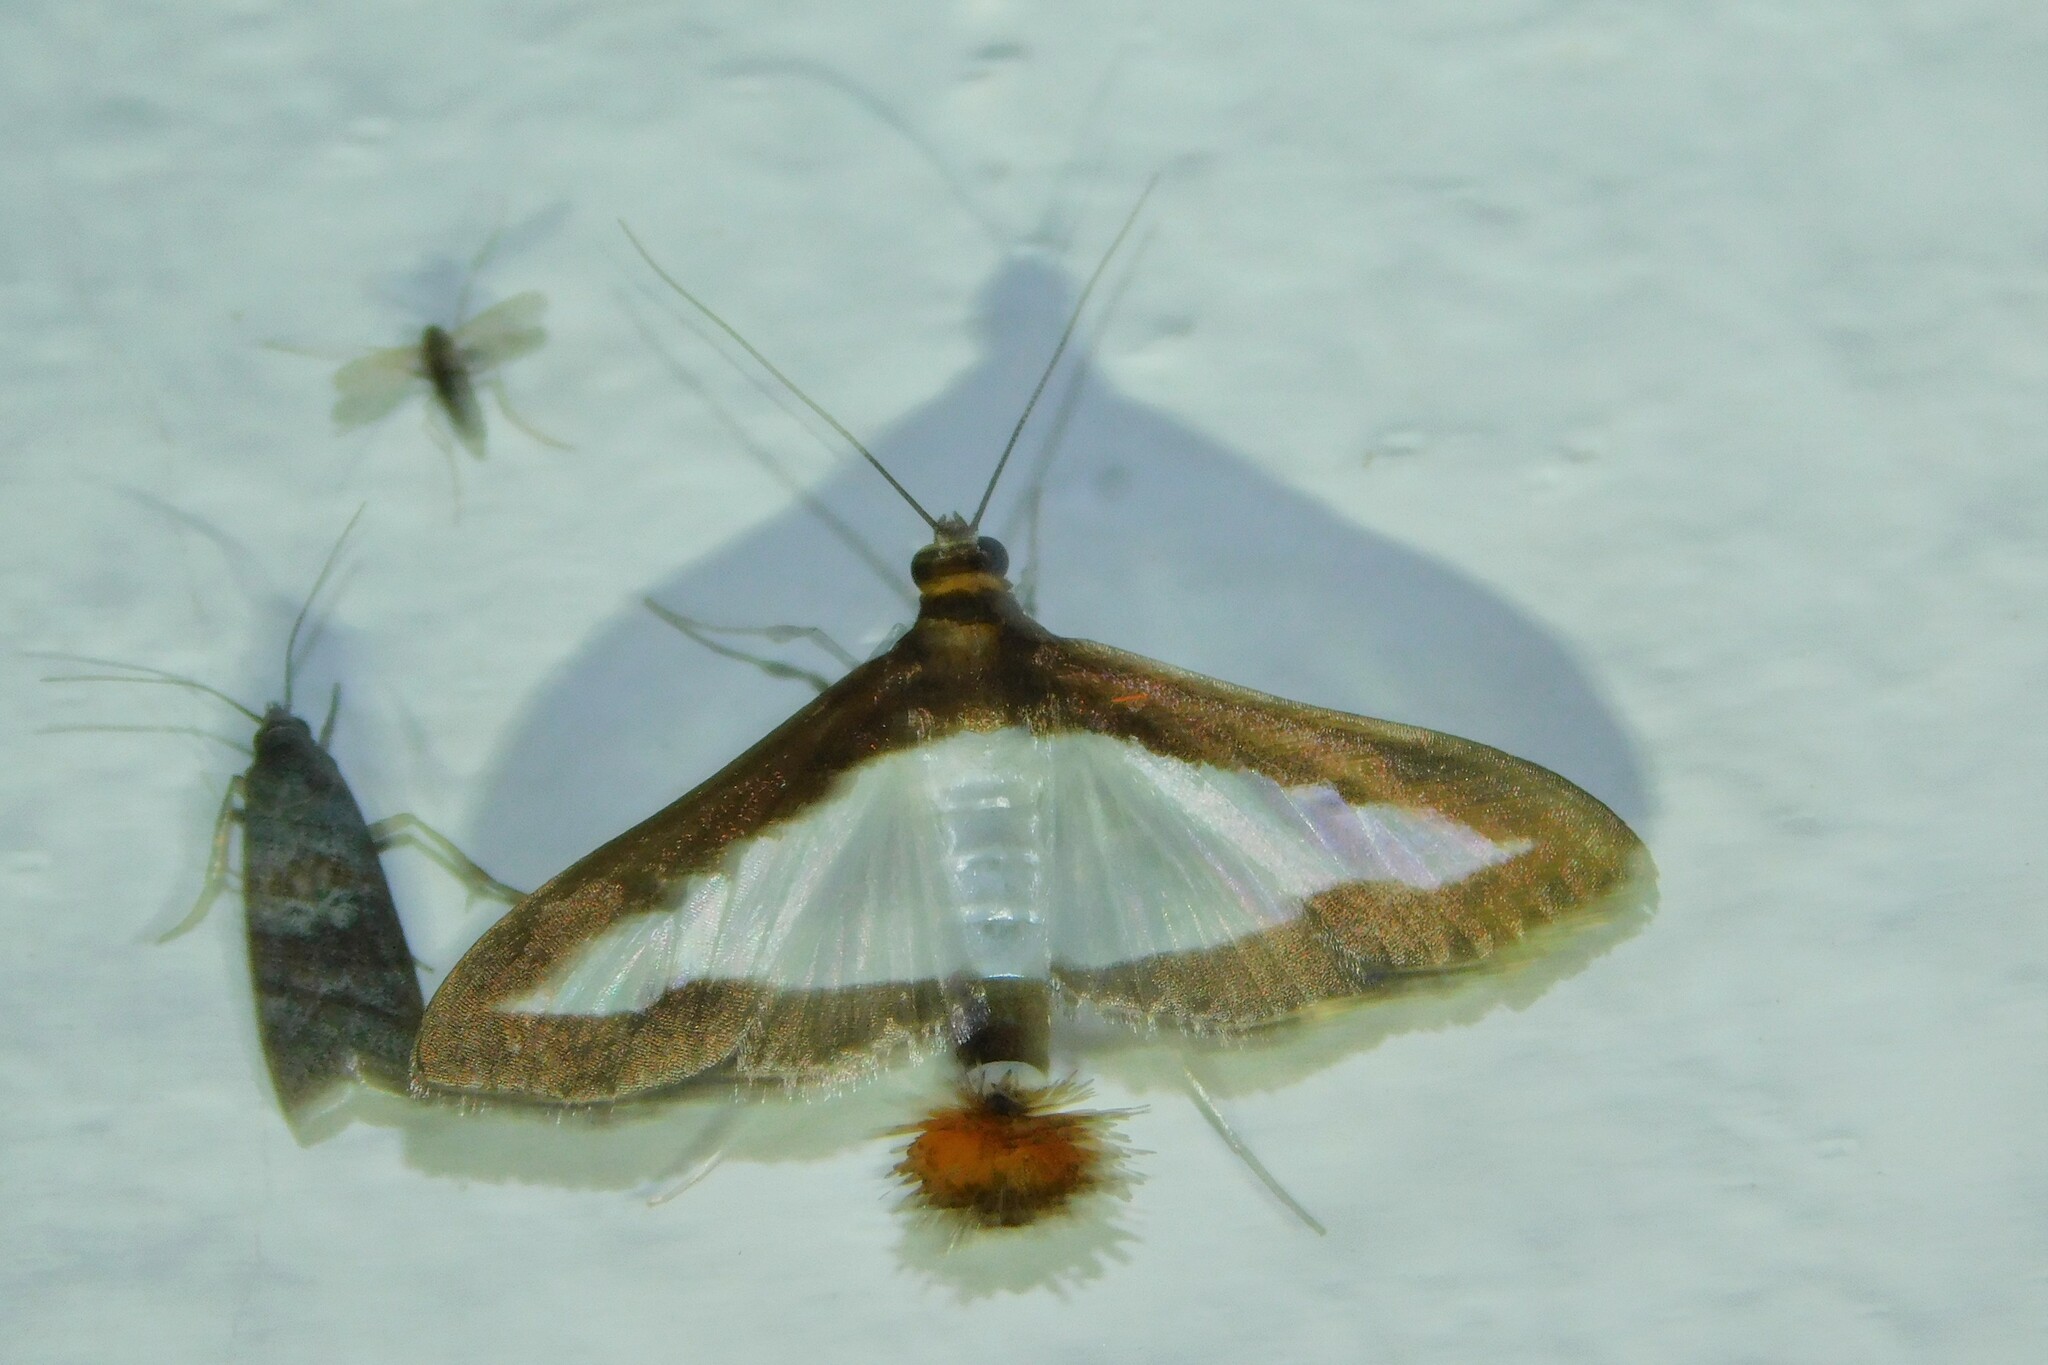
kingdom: Animalia
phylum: Arthropoda
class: Insecta
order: Lepidoptera
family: Crambidae
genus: Diaphania
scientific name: Diaphania indica
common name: Cucumber moth
